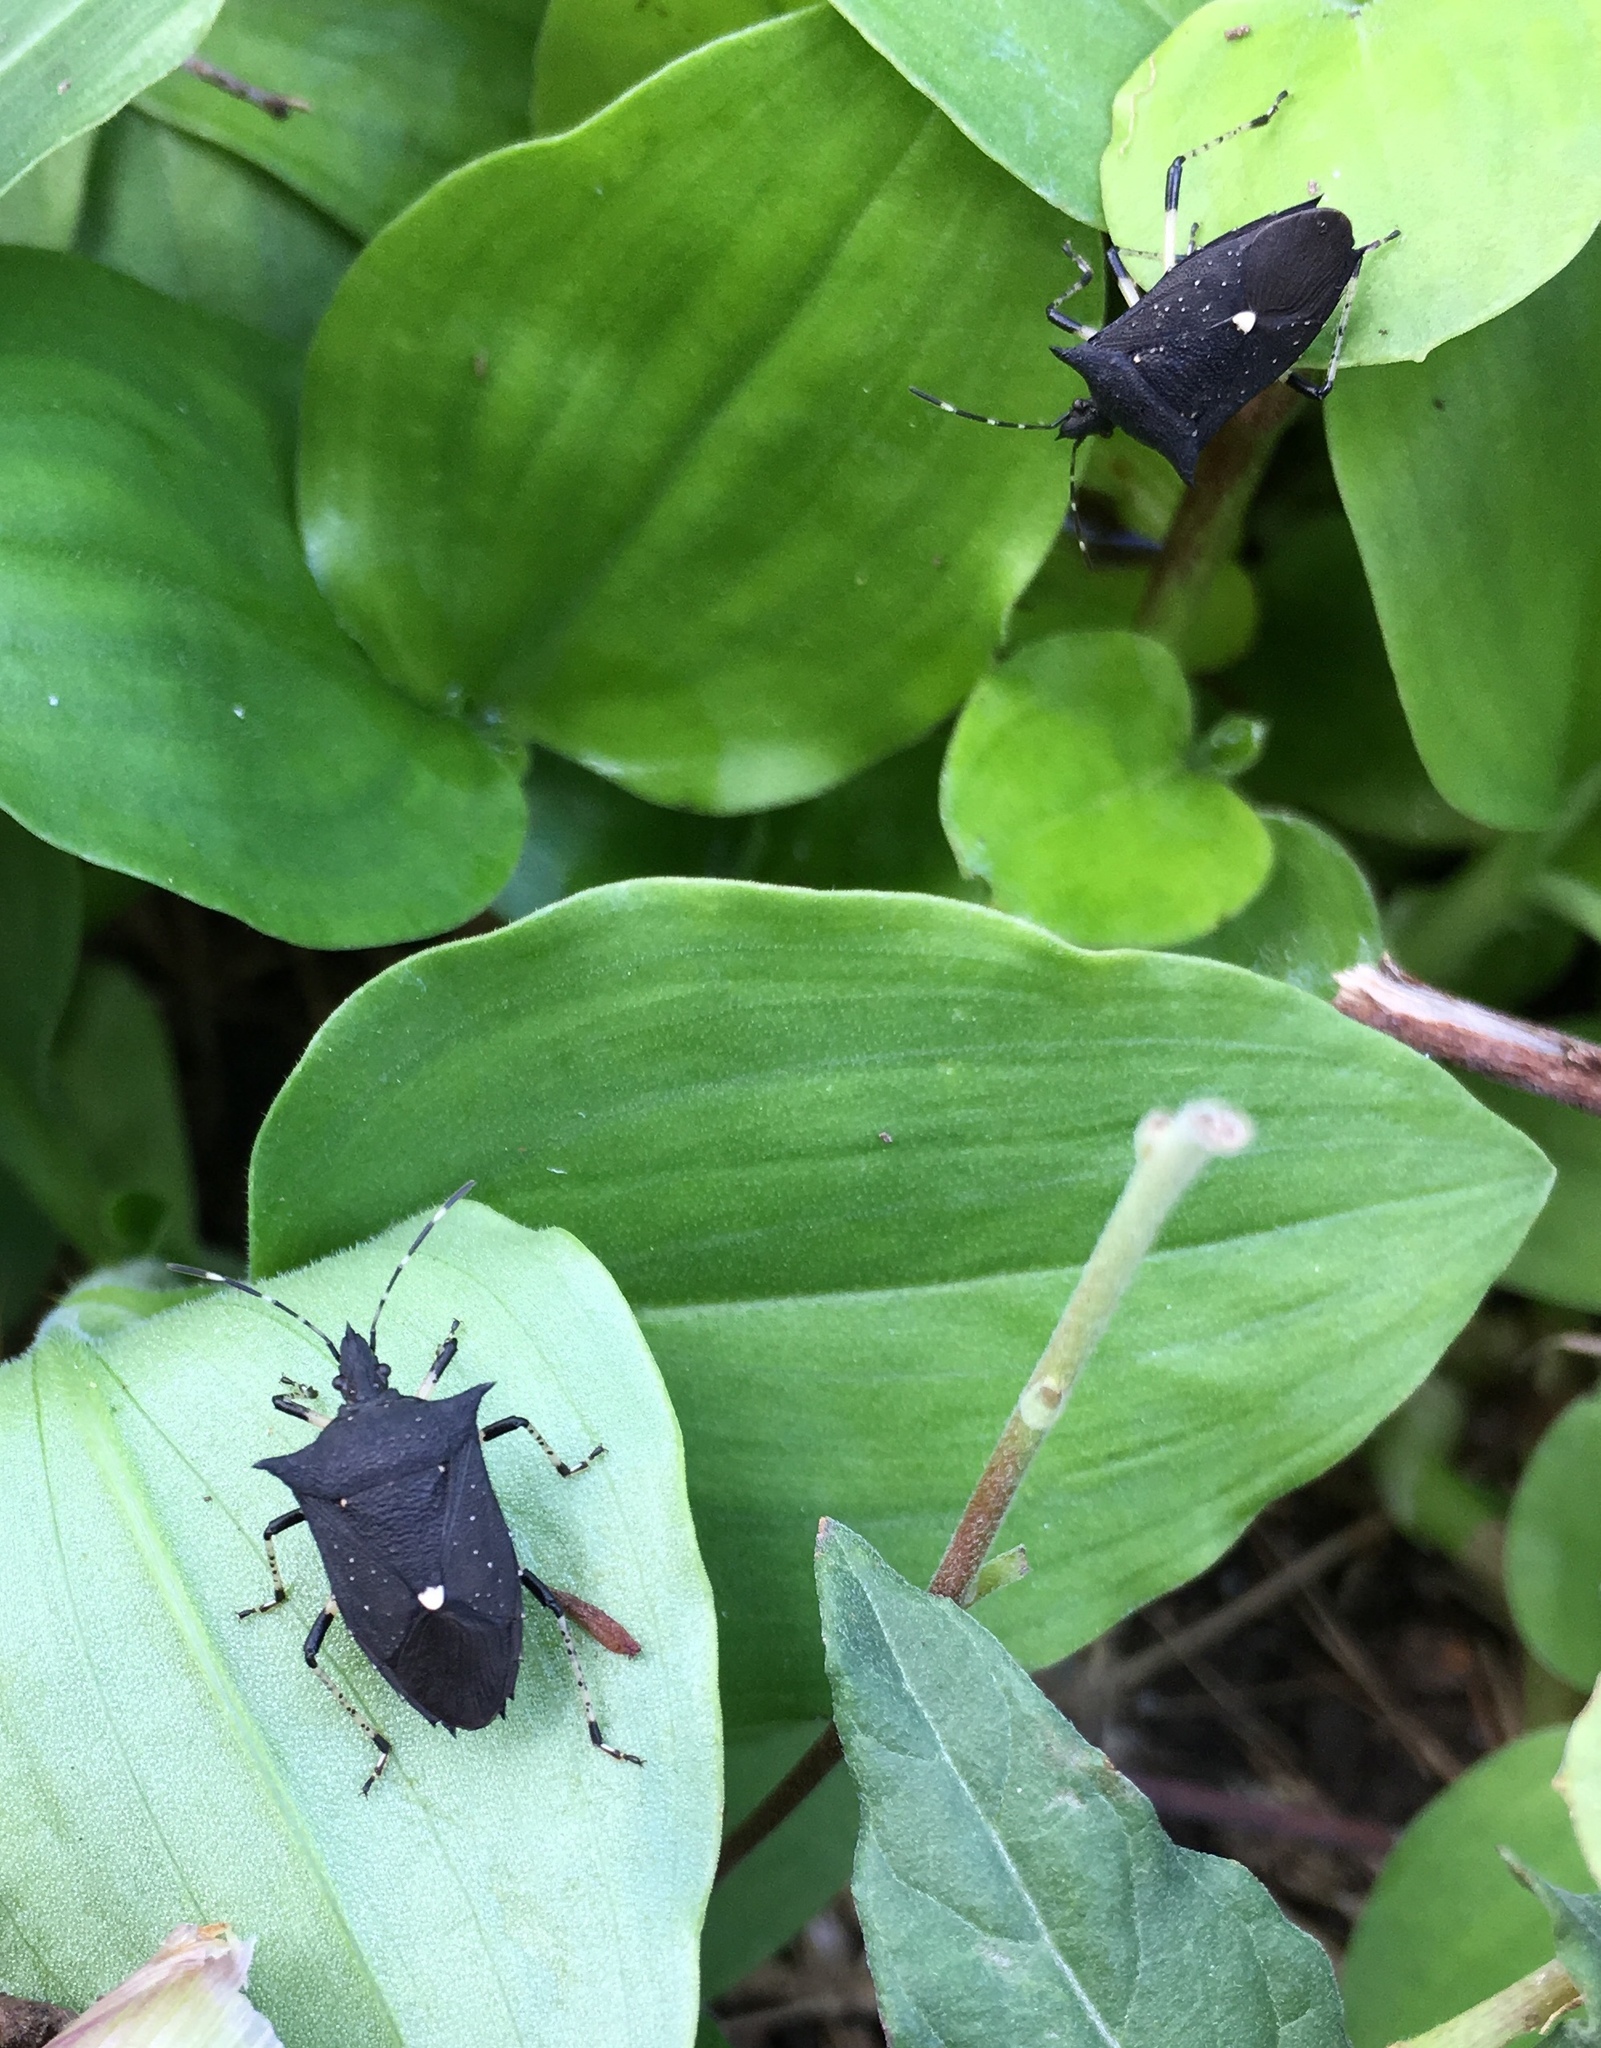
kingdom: Animalia
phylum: Arthropoda
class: Insecta
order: Hemiptera
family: Pentatomidae
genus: Proxys
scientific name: Proxys punctulatus
